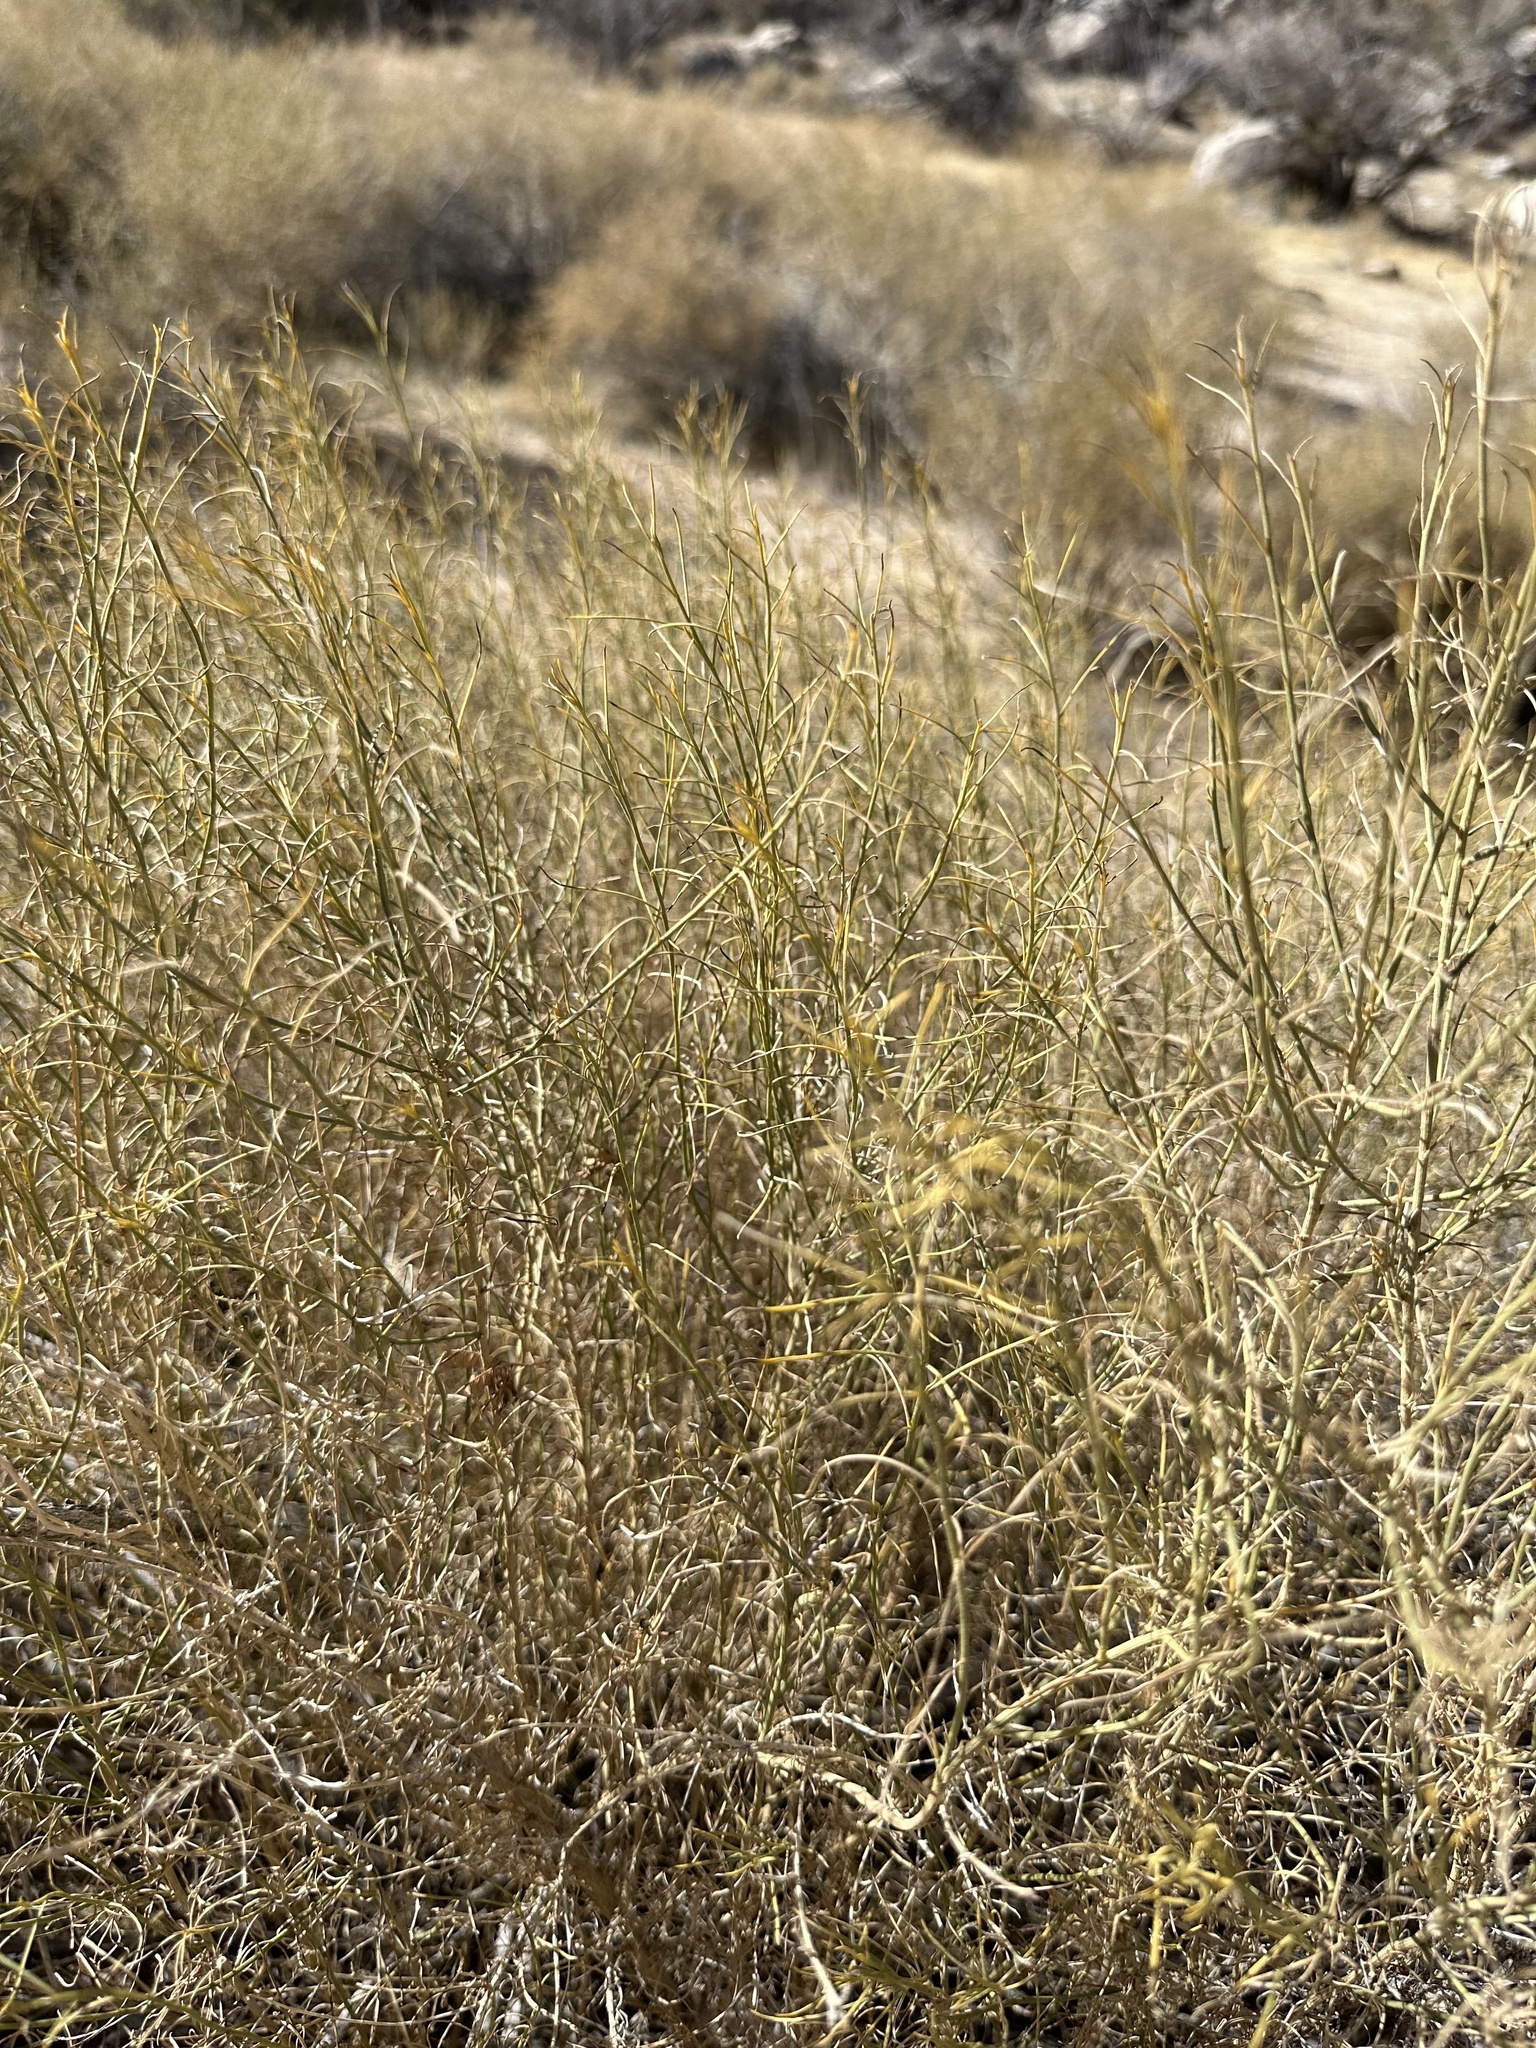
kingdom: Plantae
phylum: Tracheophyta
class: Magnoliopsida
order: Asterales
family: Asteraceae
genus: Ambrosia
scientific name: Ambrosia salsola
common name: Burrobrush
